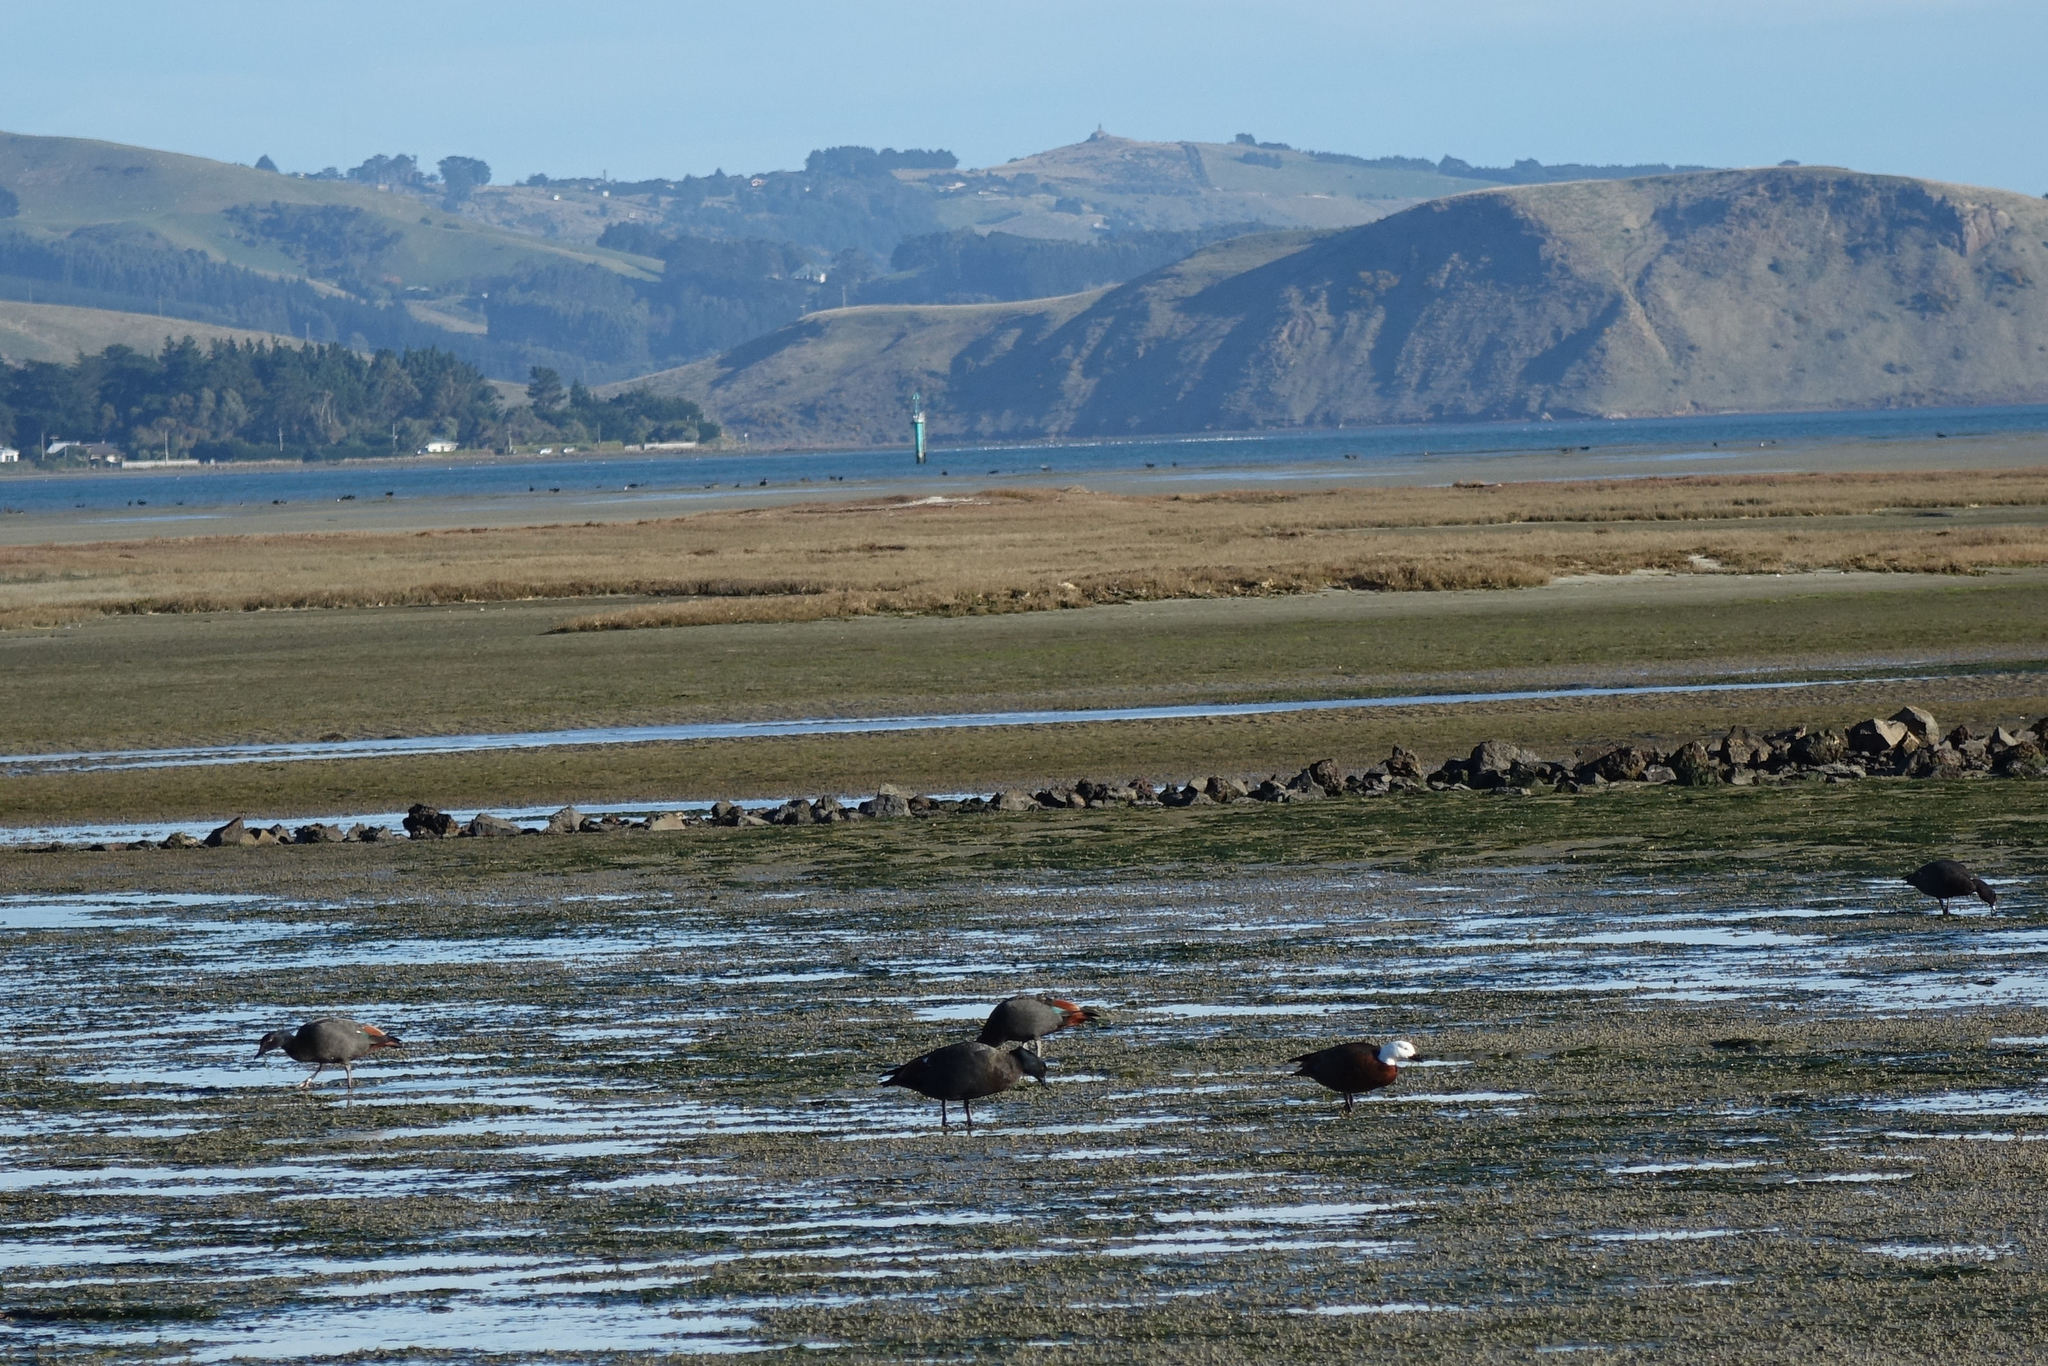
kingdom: Animalia
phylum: Chordata
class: Aves
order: Anseriformes
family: Anatidae
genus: Tadorna
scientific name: Tadorna variegata
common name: Paradise shelduck
